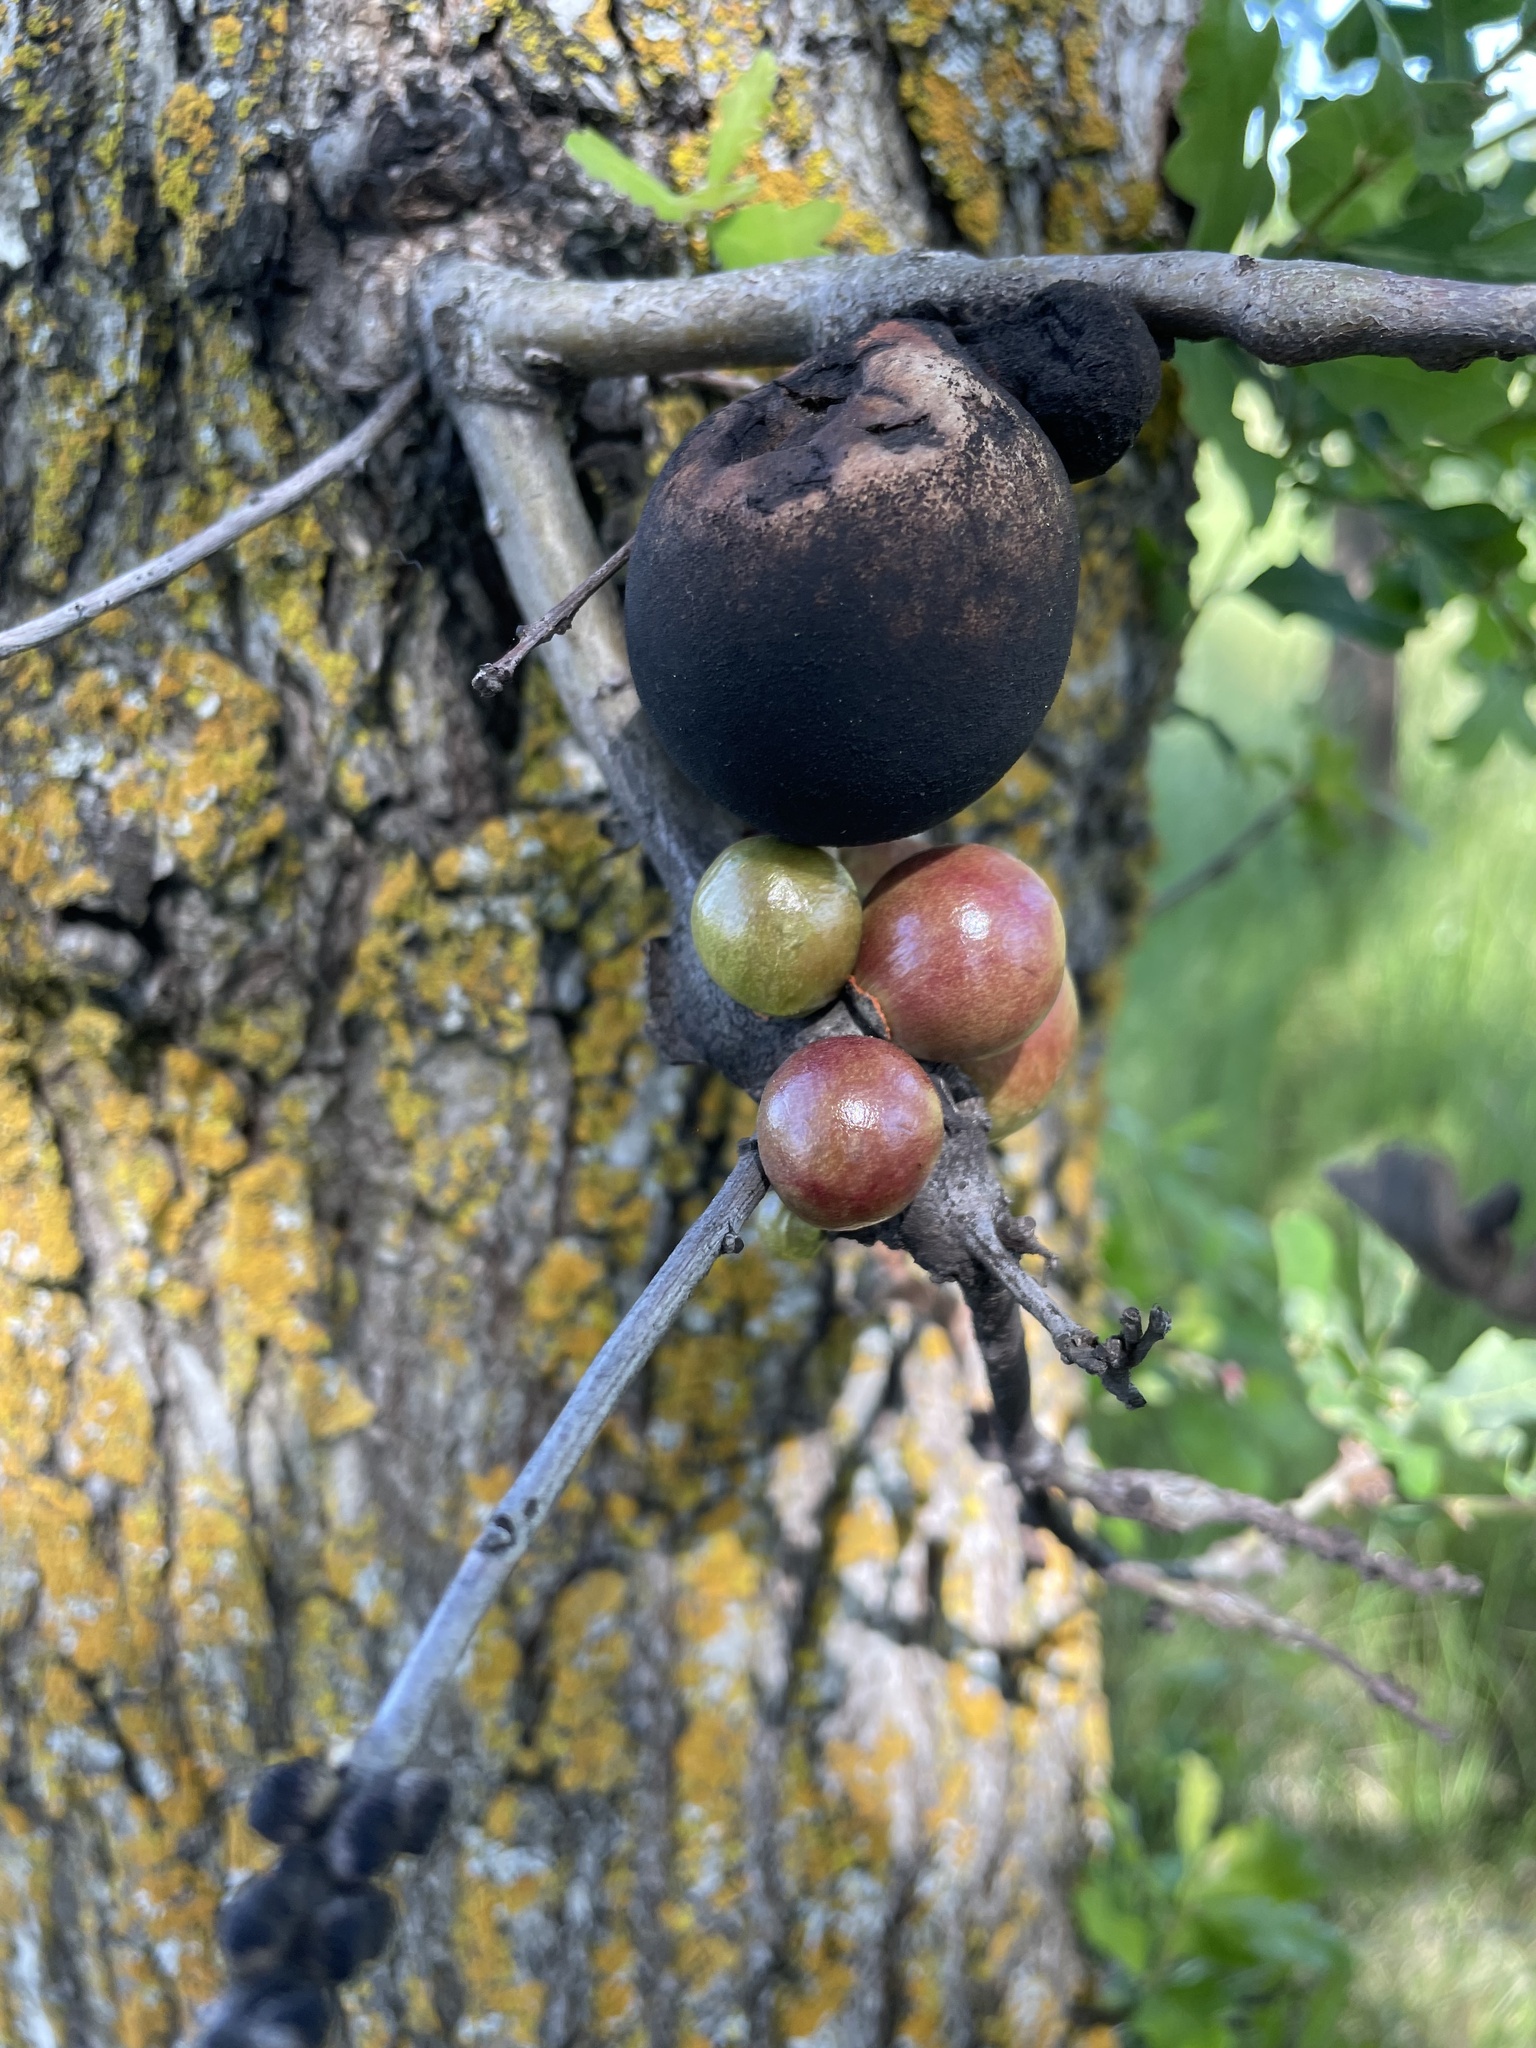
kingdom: Animalia
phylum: Arthropoda
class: Insecta
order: Hymenoptera
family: Cynipidae
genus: Andricus
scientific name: Andricus quercuscalifornicus
